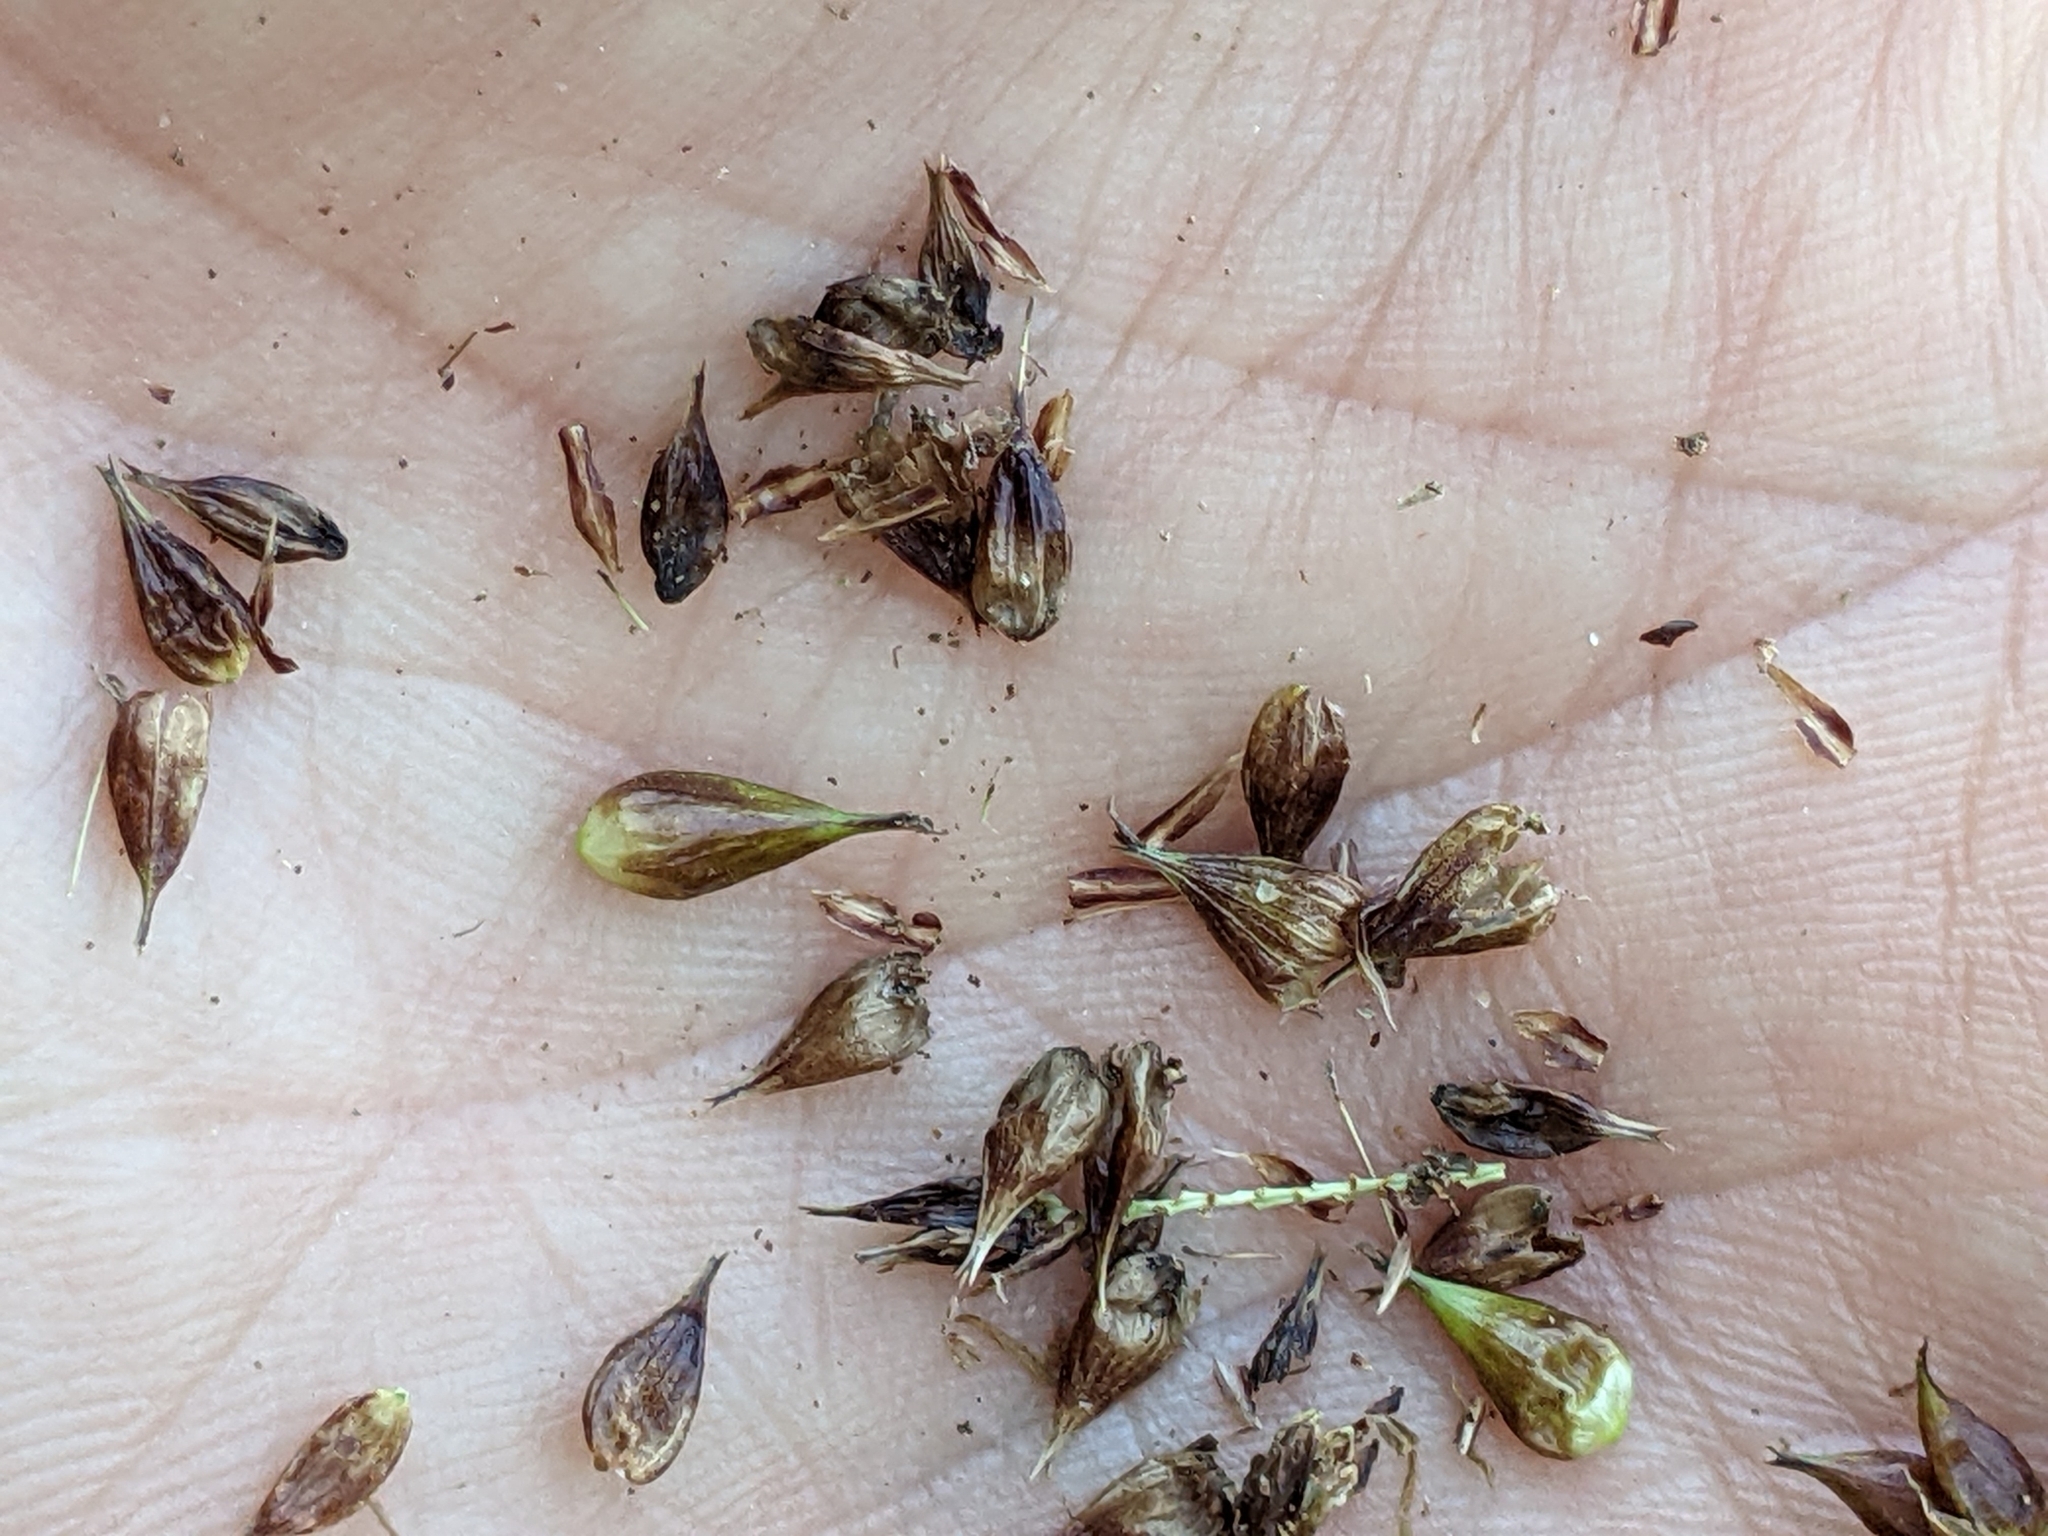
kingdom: Plantae
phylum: Tracheophyta
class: Liliopsida
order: Poales
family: Cyperaceae
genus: Carex
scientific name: Carex vesicaria
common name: Bladder-sedge
